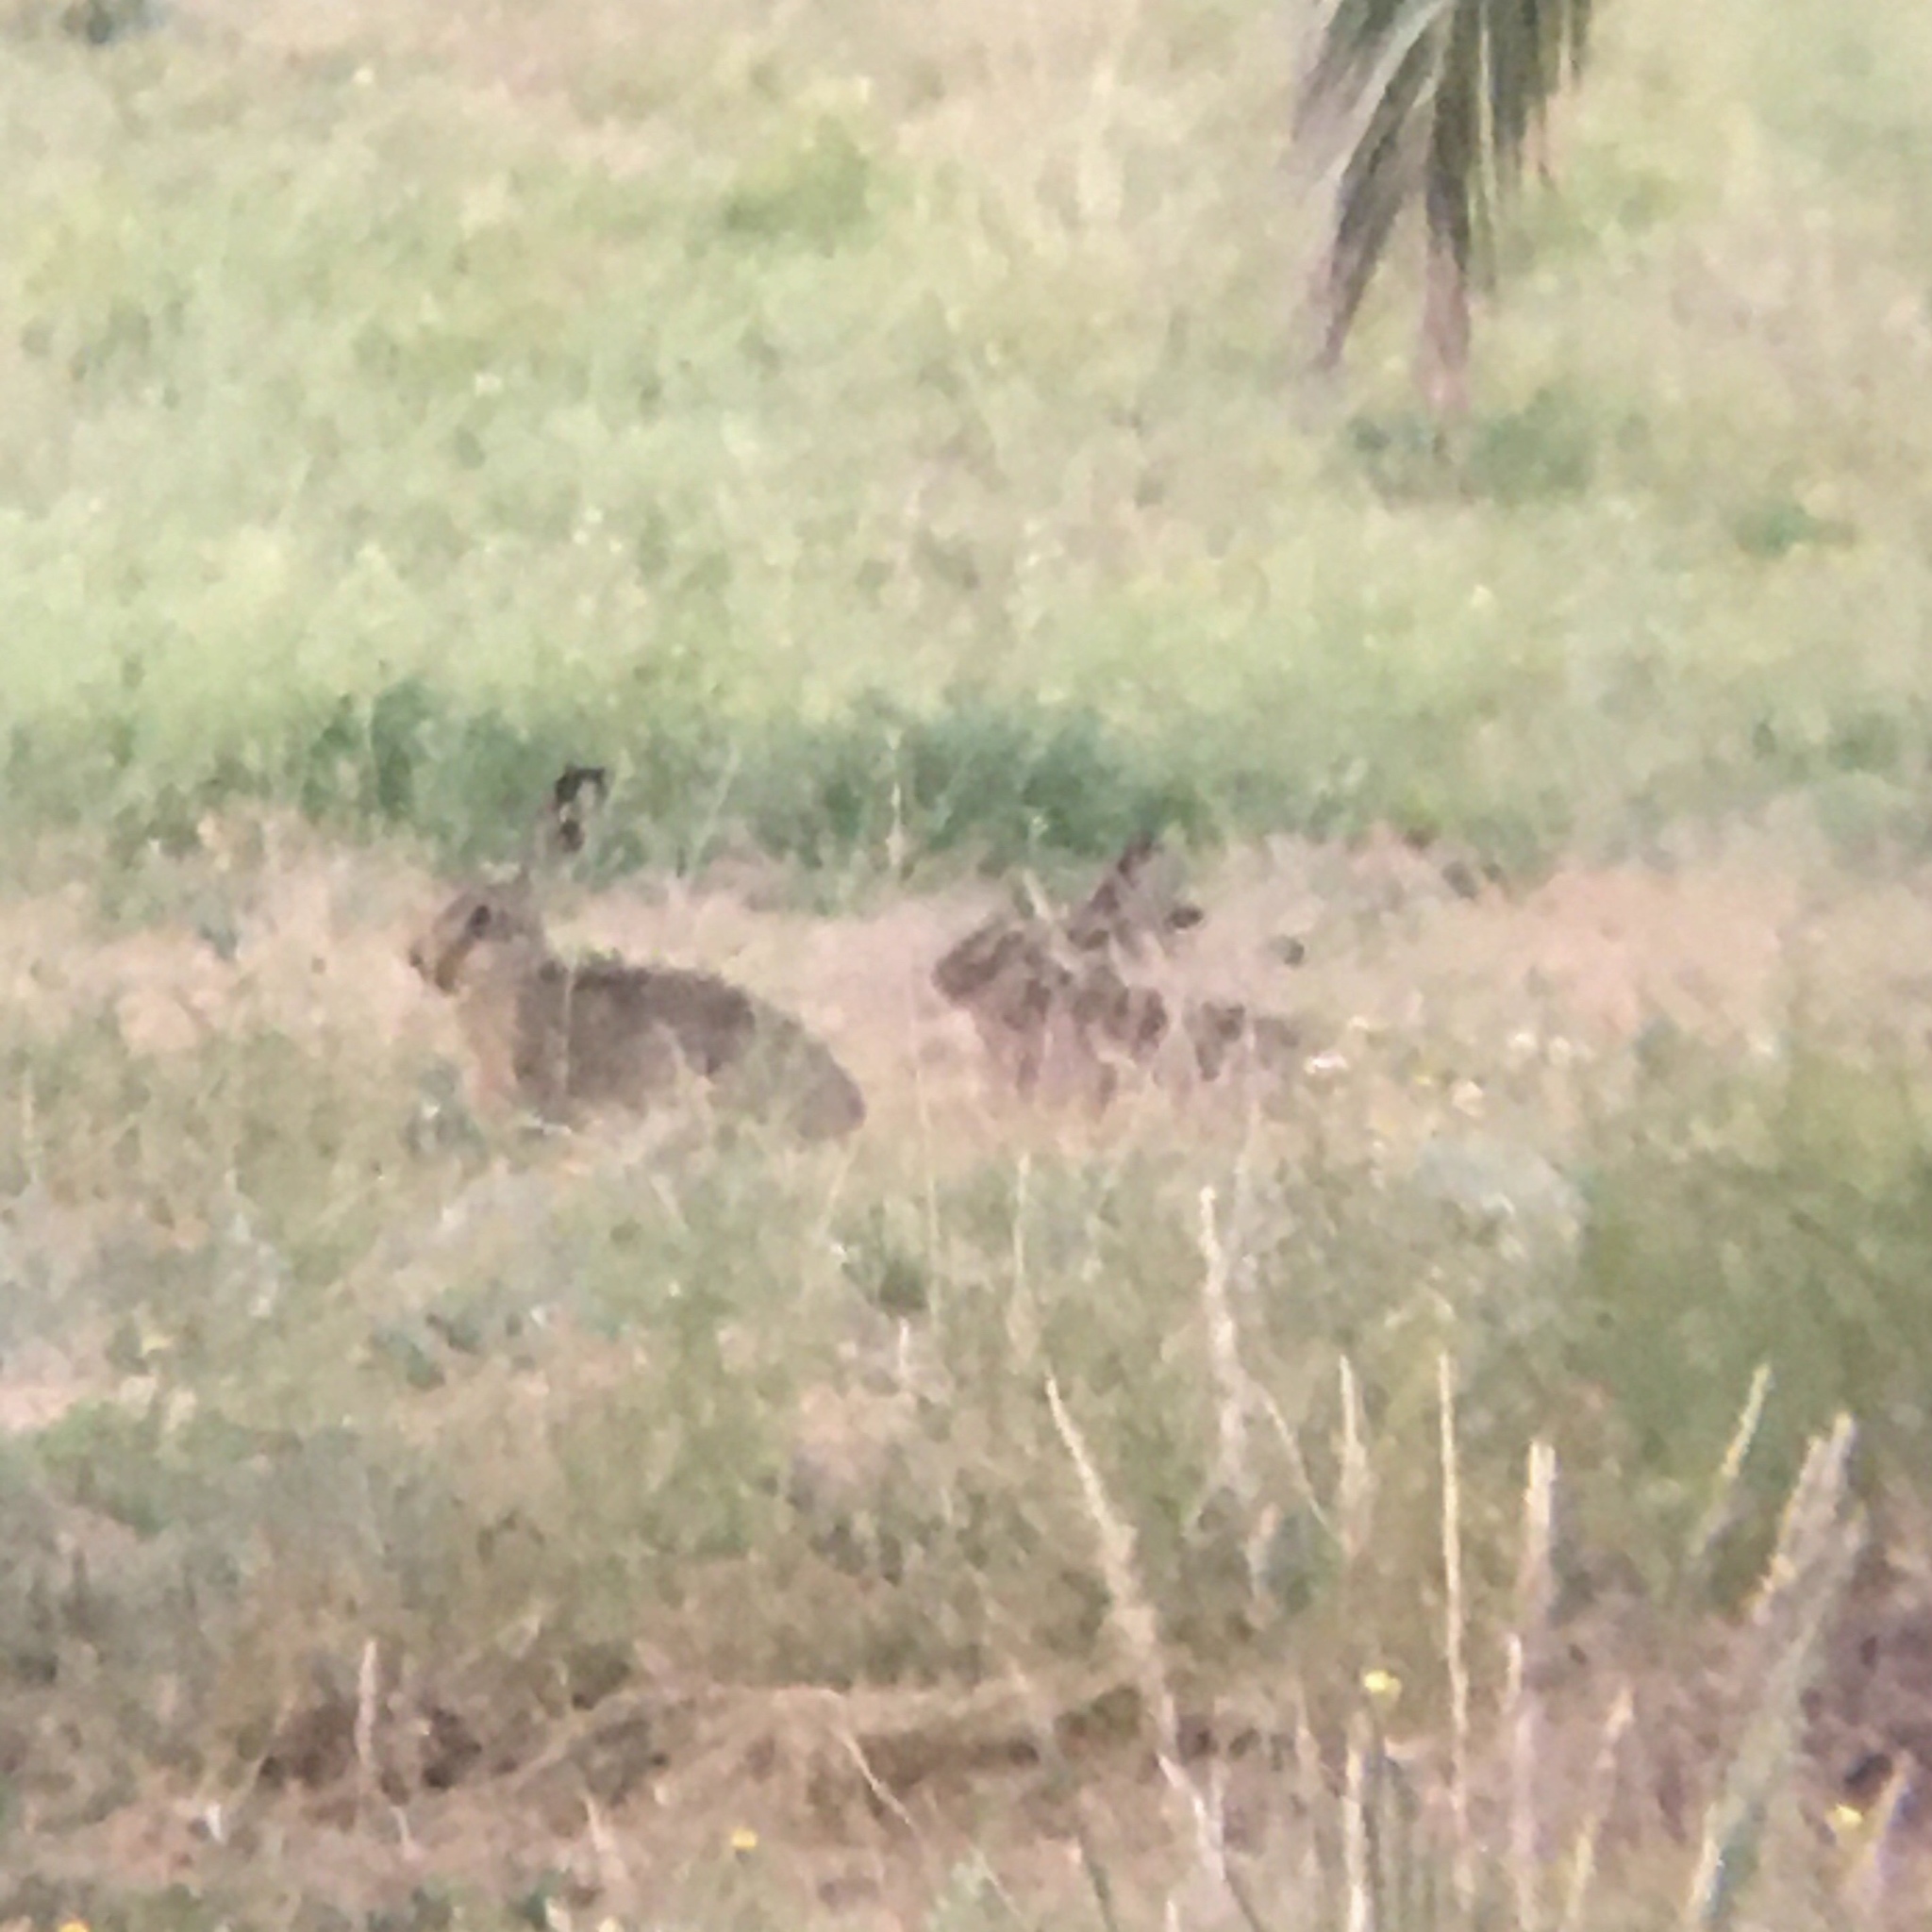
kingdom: Animalia
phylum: Chordata
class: Mammalia
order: Lagomorpha
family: Leporidae
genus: Lepus
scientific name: Lepus europaeus
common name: European hare
